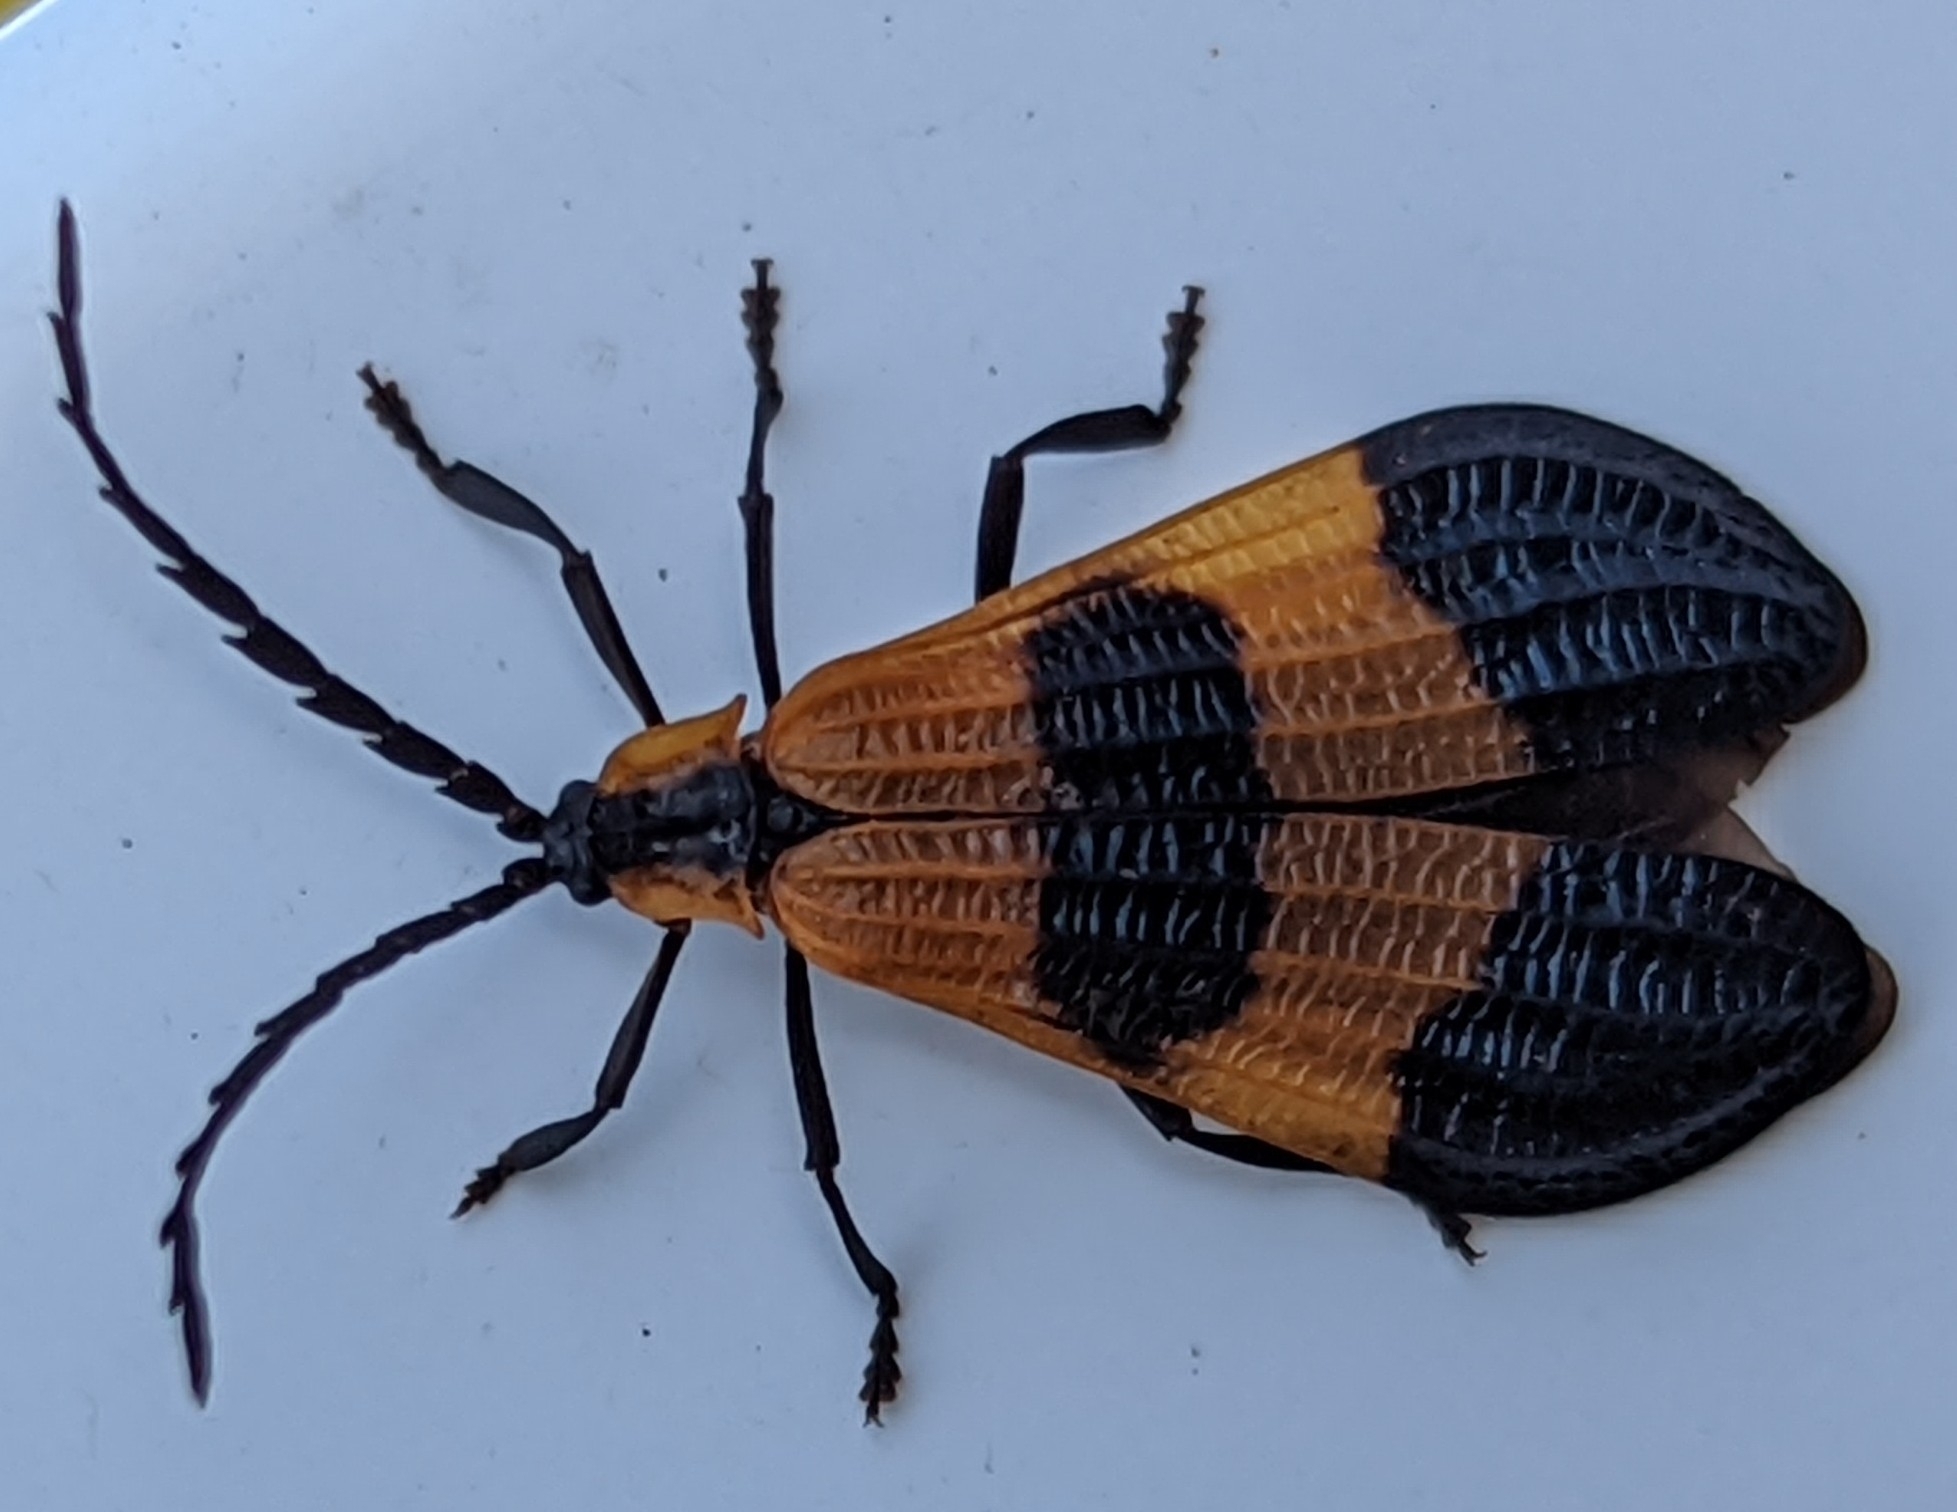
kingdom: Animalia
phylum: Arthropoda
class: Insecta
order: Coleoptera
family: Lycidae
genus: Calopteron
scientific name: Calopteron terminale
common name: End band net-winged beetle
